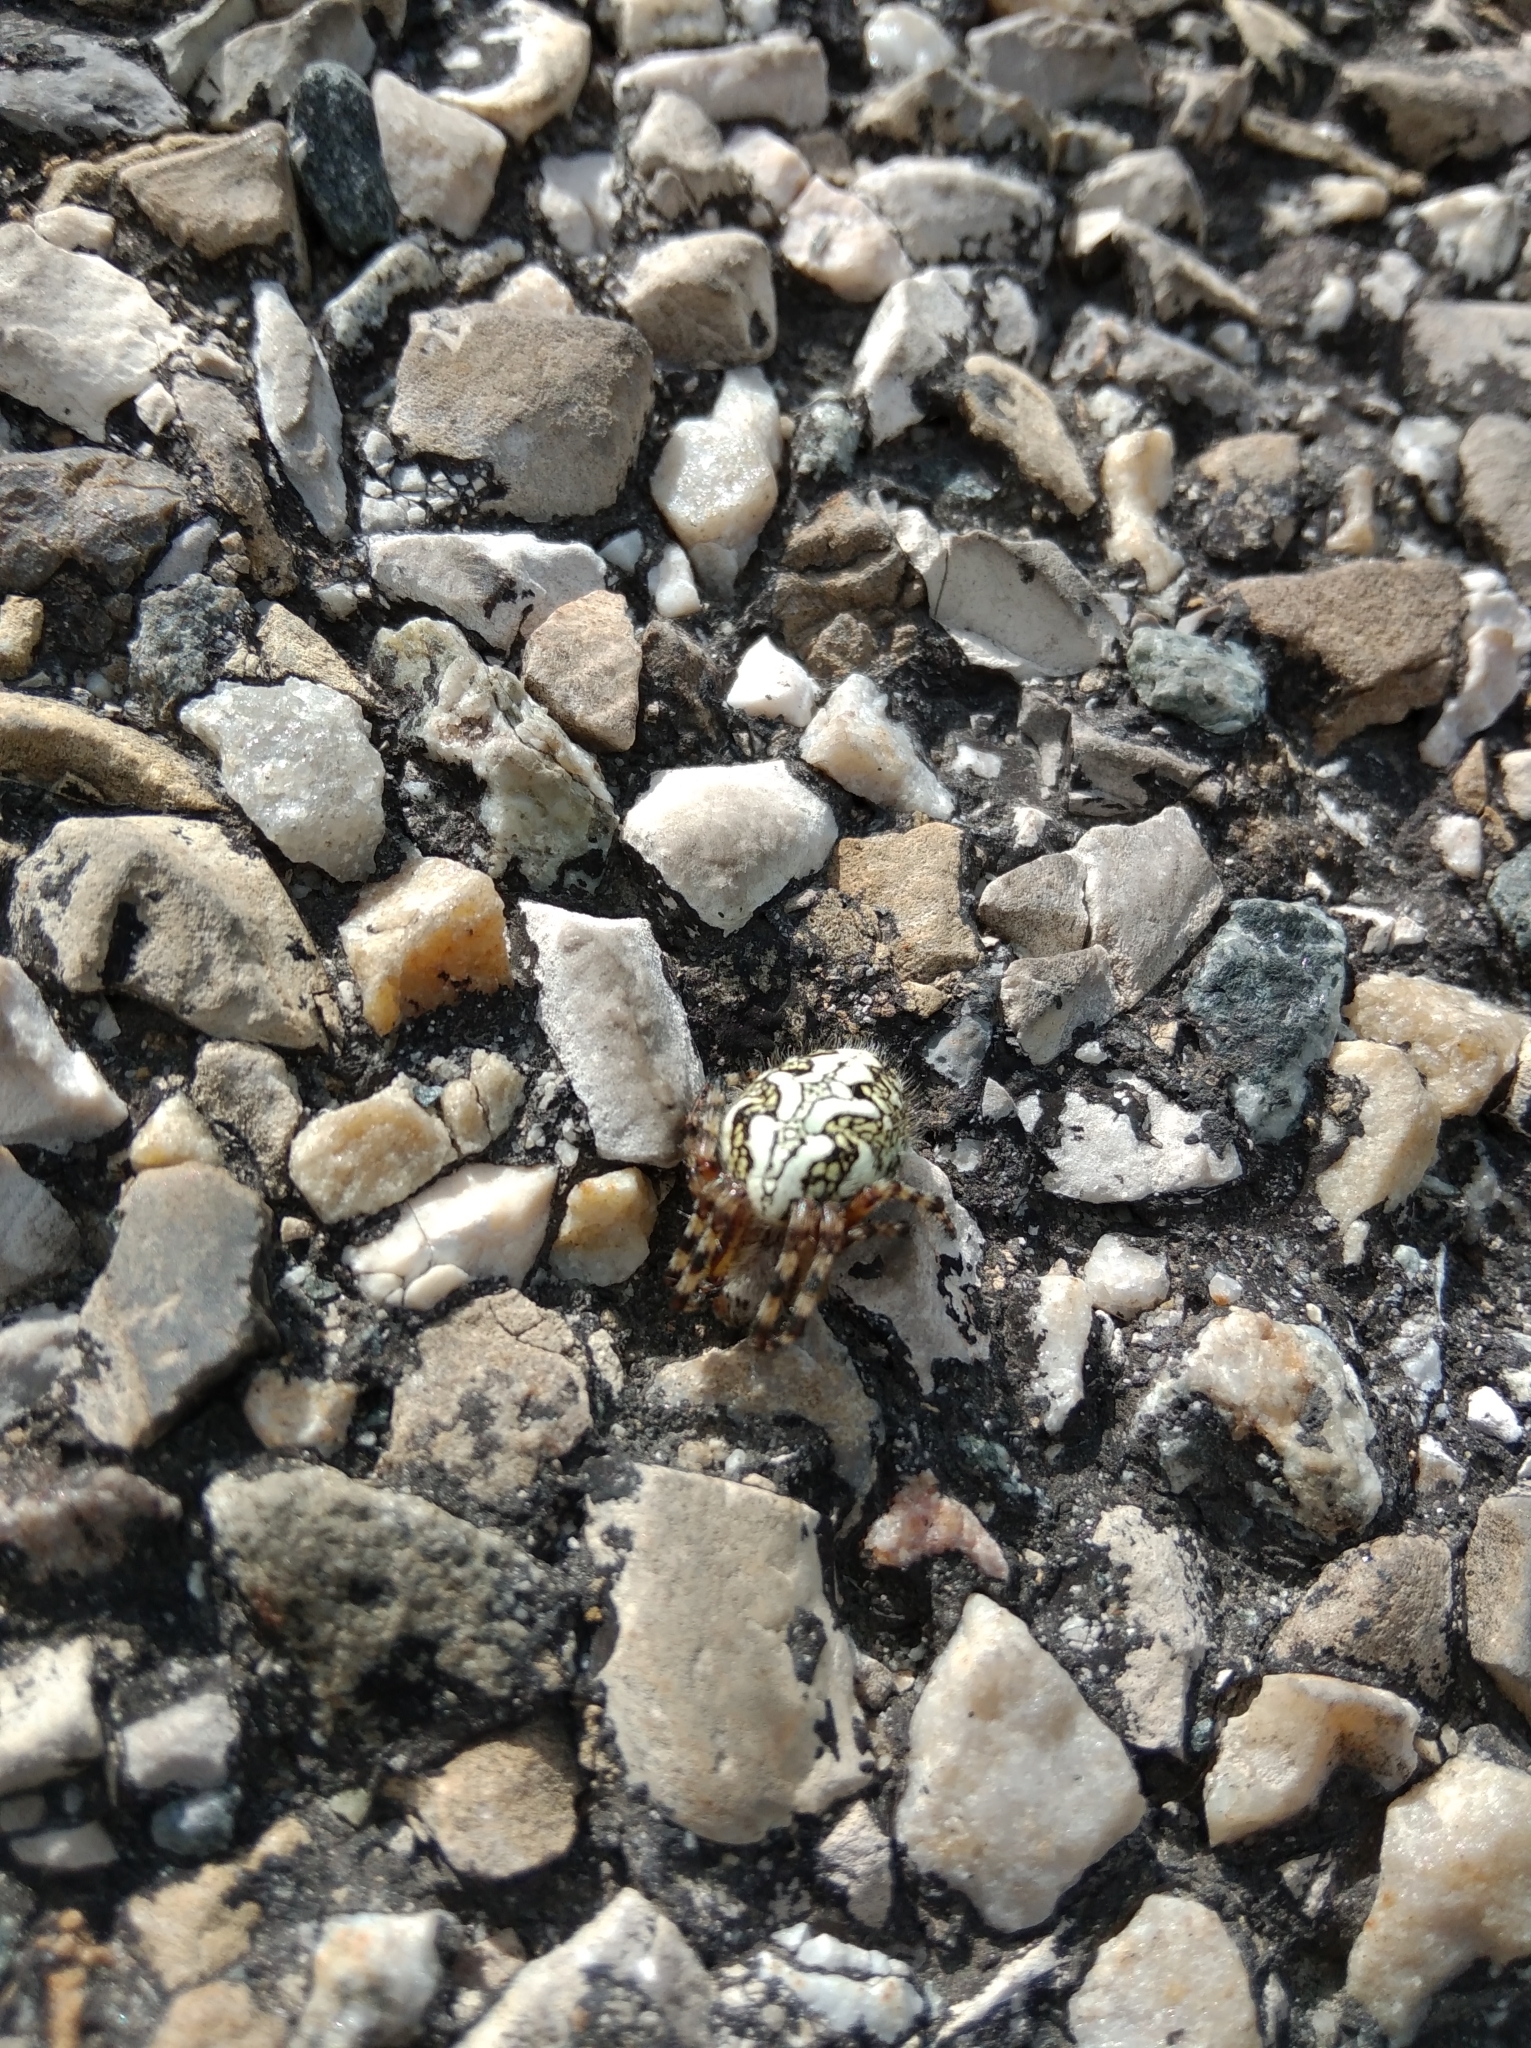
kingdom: Animalia
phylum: Arthropoda
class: Arachnida
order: Araneae
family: Araneidae
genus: Aculepeira
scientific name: Aculepeira ceropegia
